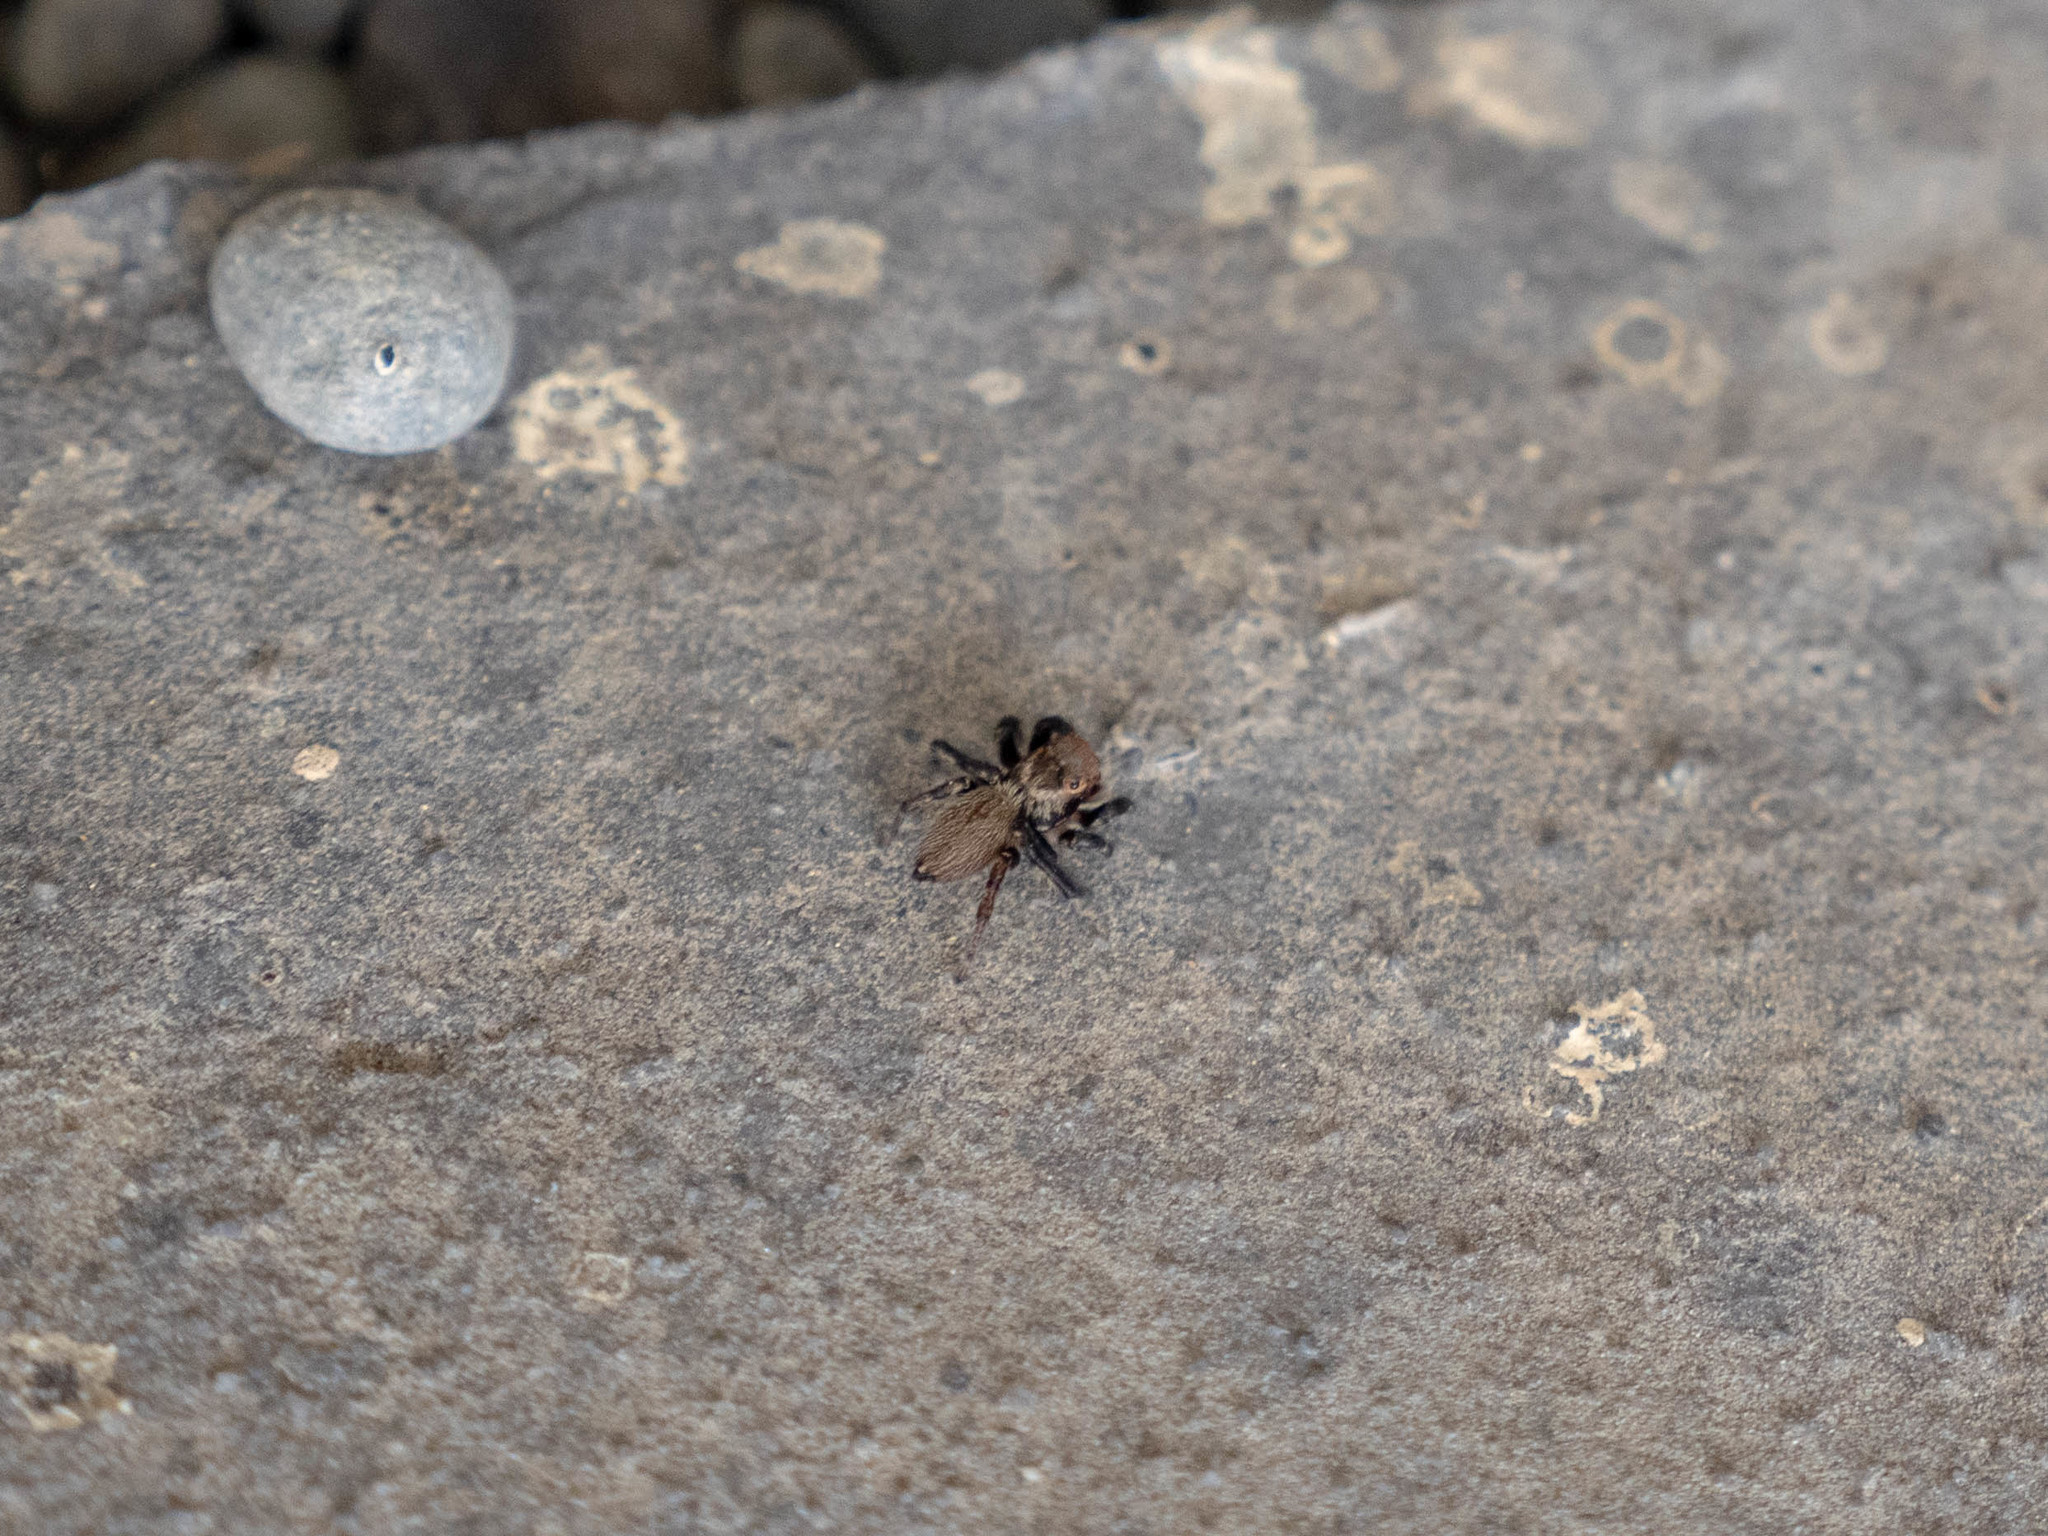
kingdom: Animalia
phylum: Arthropoda
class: Arachnida
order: Araneae
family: Salticidae
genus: Maratus
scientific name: Maratus griseus
